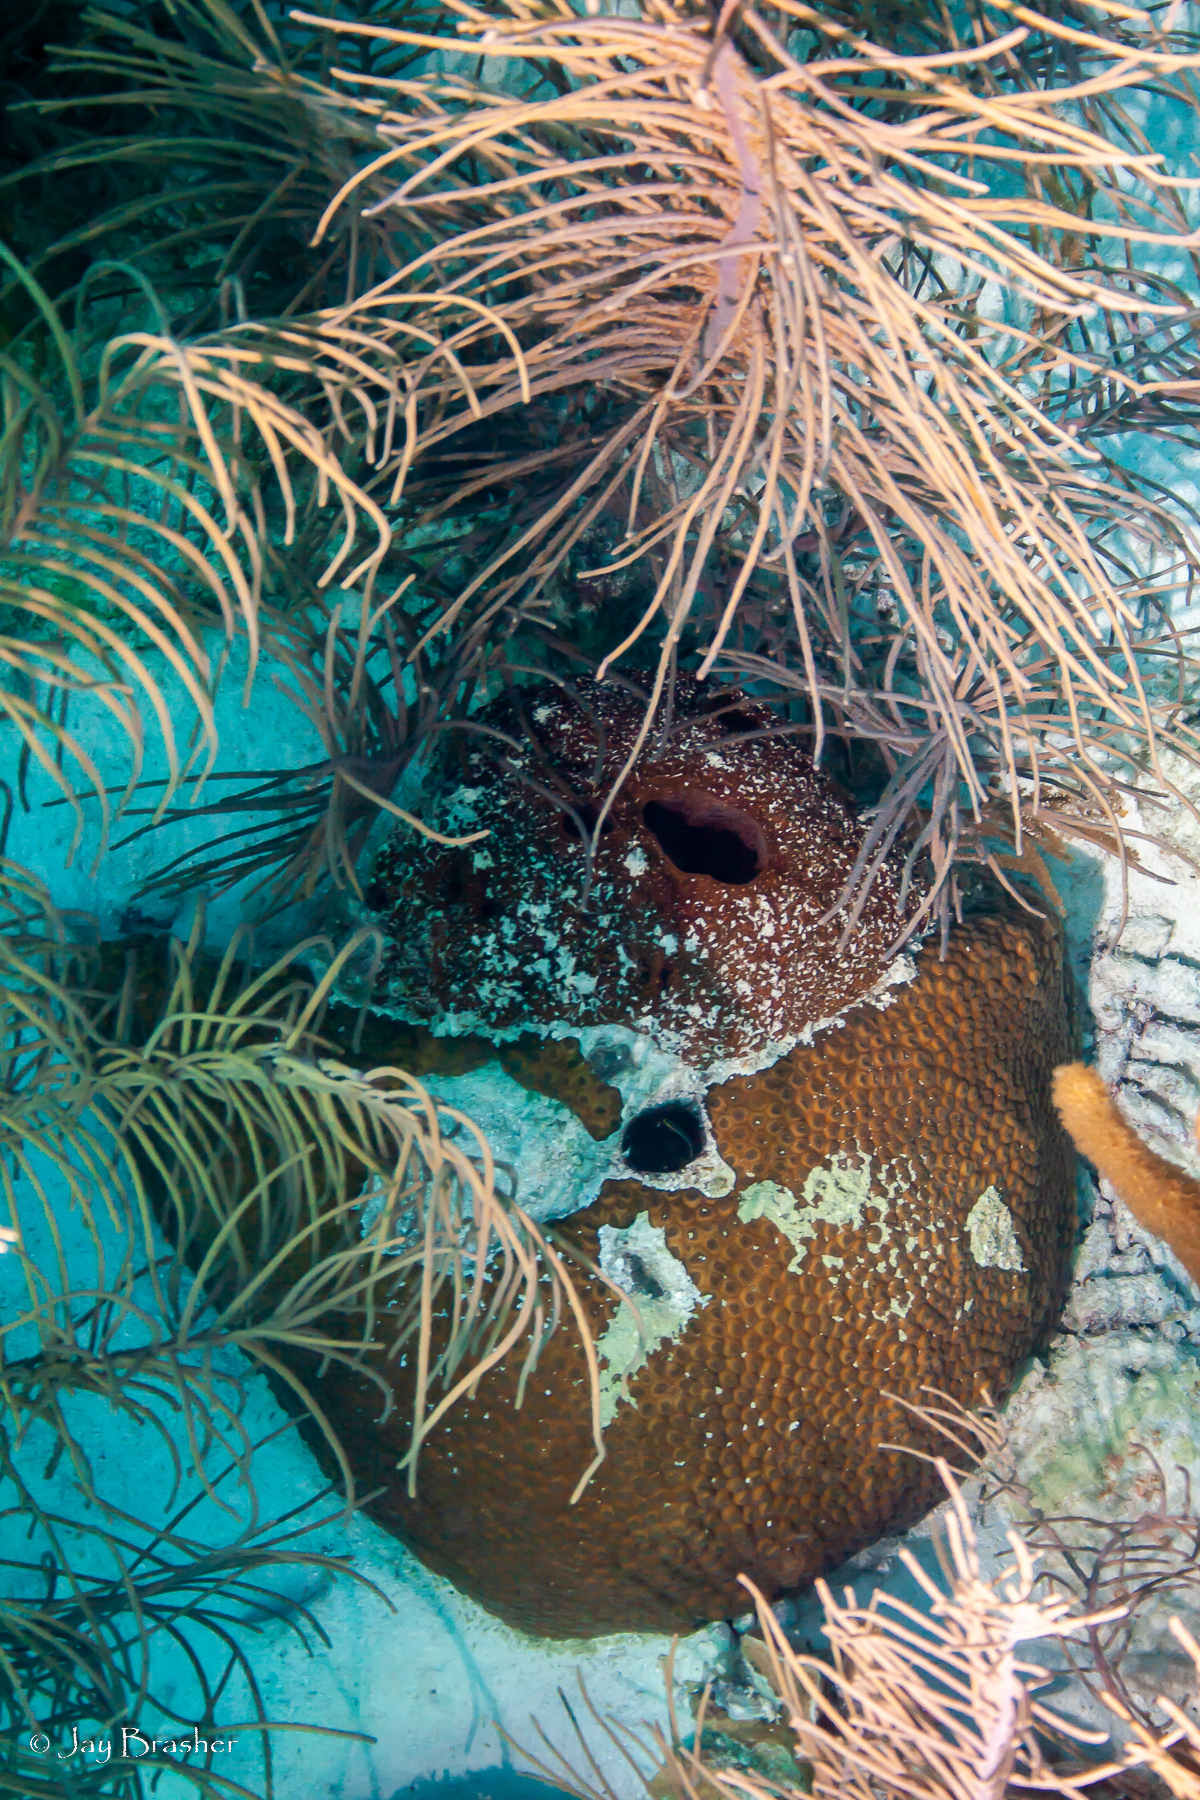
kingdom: Animalia
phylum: Porifera
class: Demospongiae
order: Biemnida
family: Biemnidae
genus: Neofibularia
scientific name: Neofibularia nolitangere
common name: Do-not-touch-me sponge
